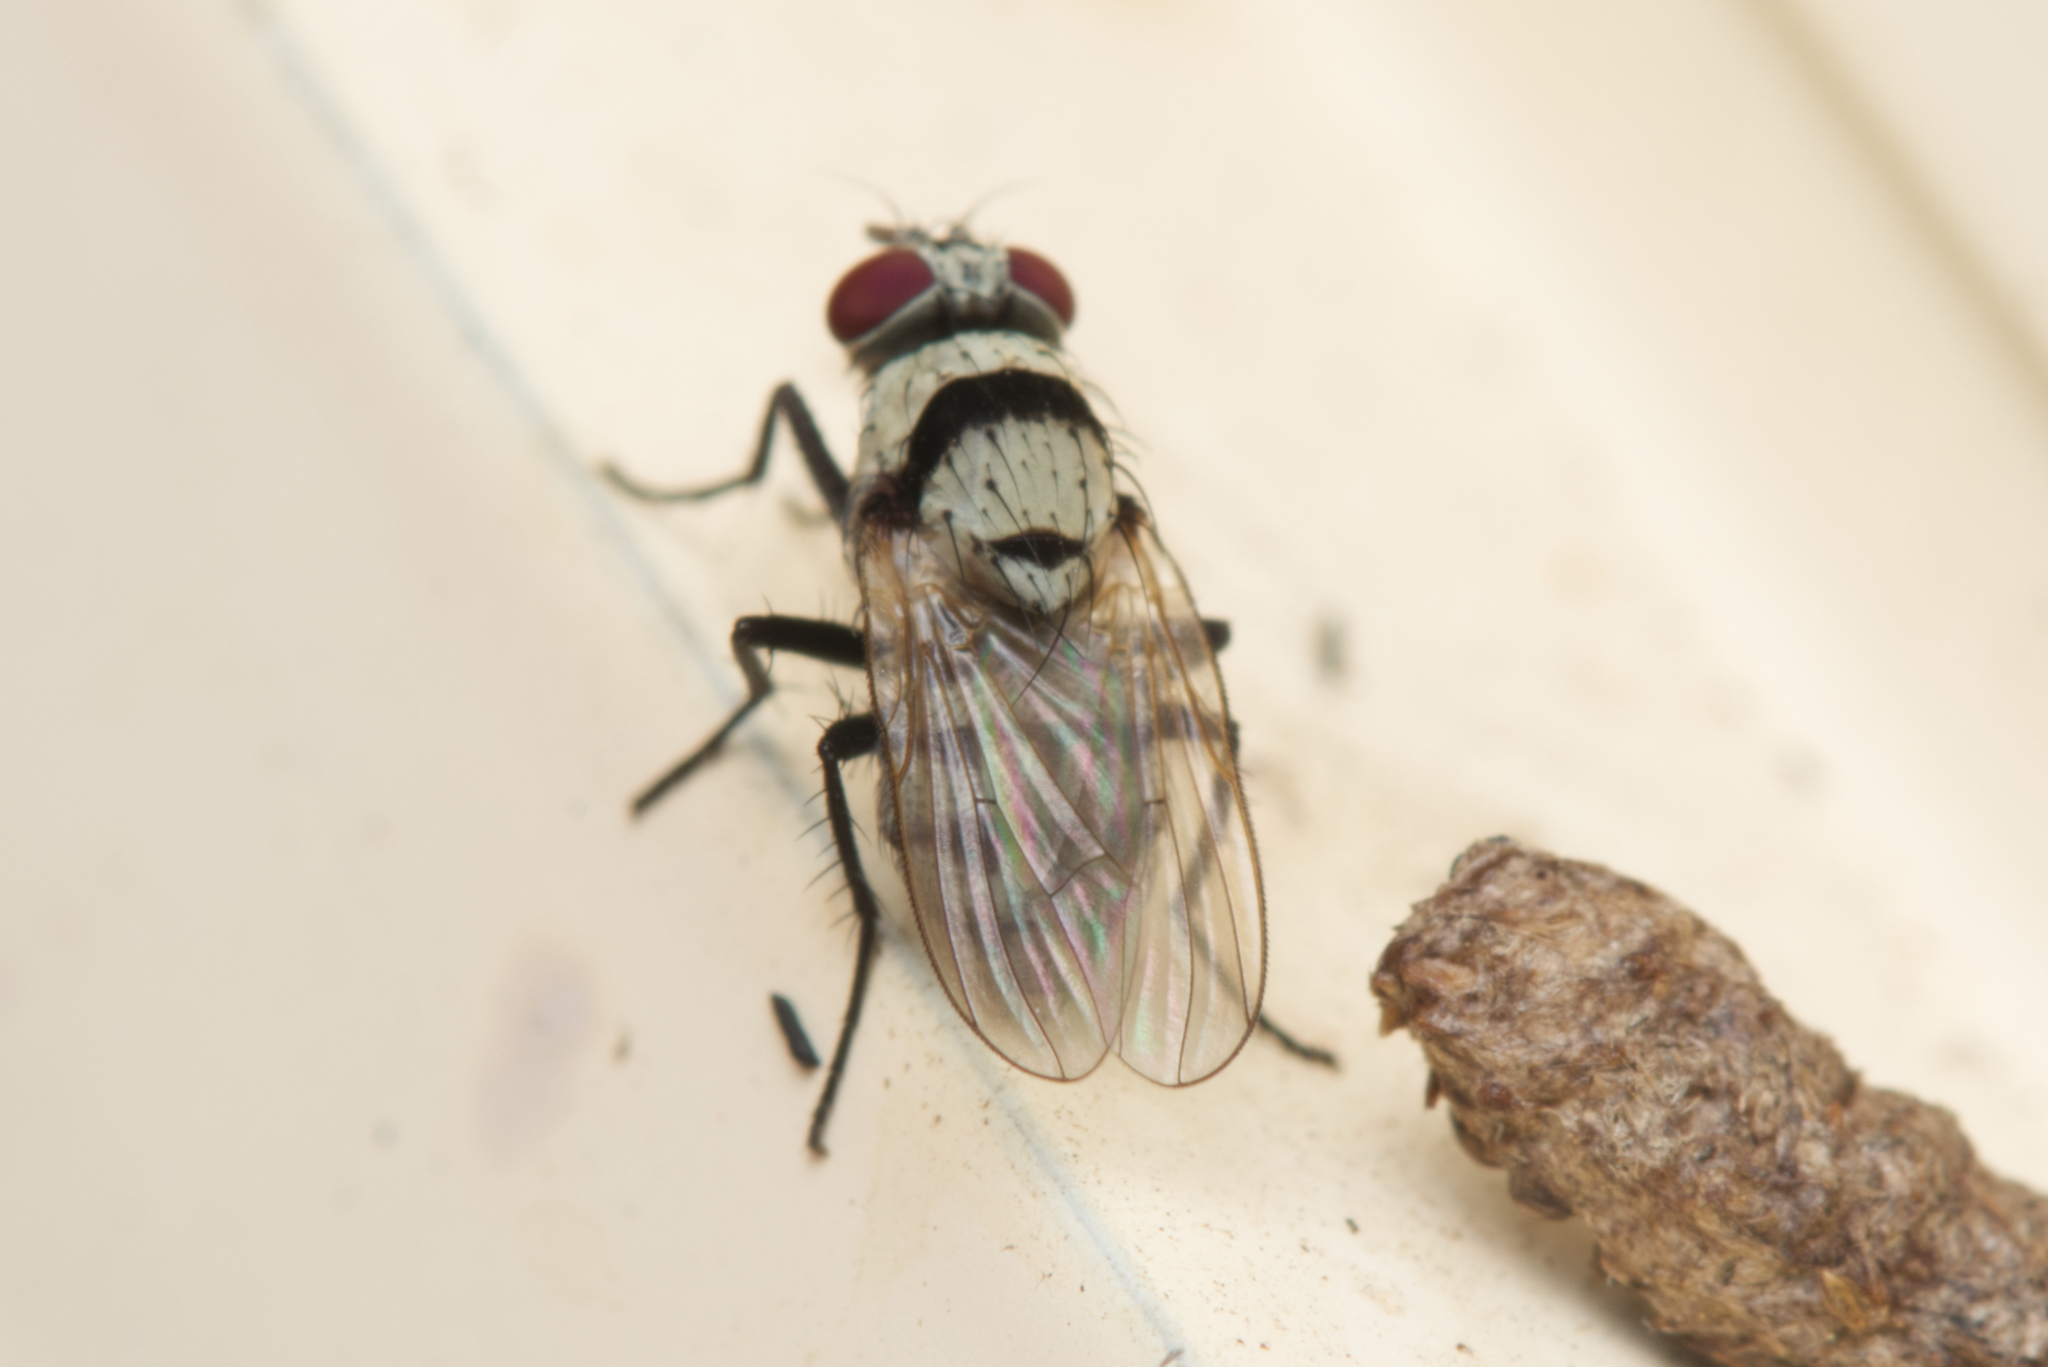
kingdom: Animalia
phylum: Arthropoda
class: Insecta
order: Diptera
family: Anthomyiidae
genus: Anthomyia
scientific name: Anthomyia silvestris
